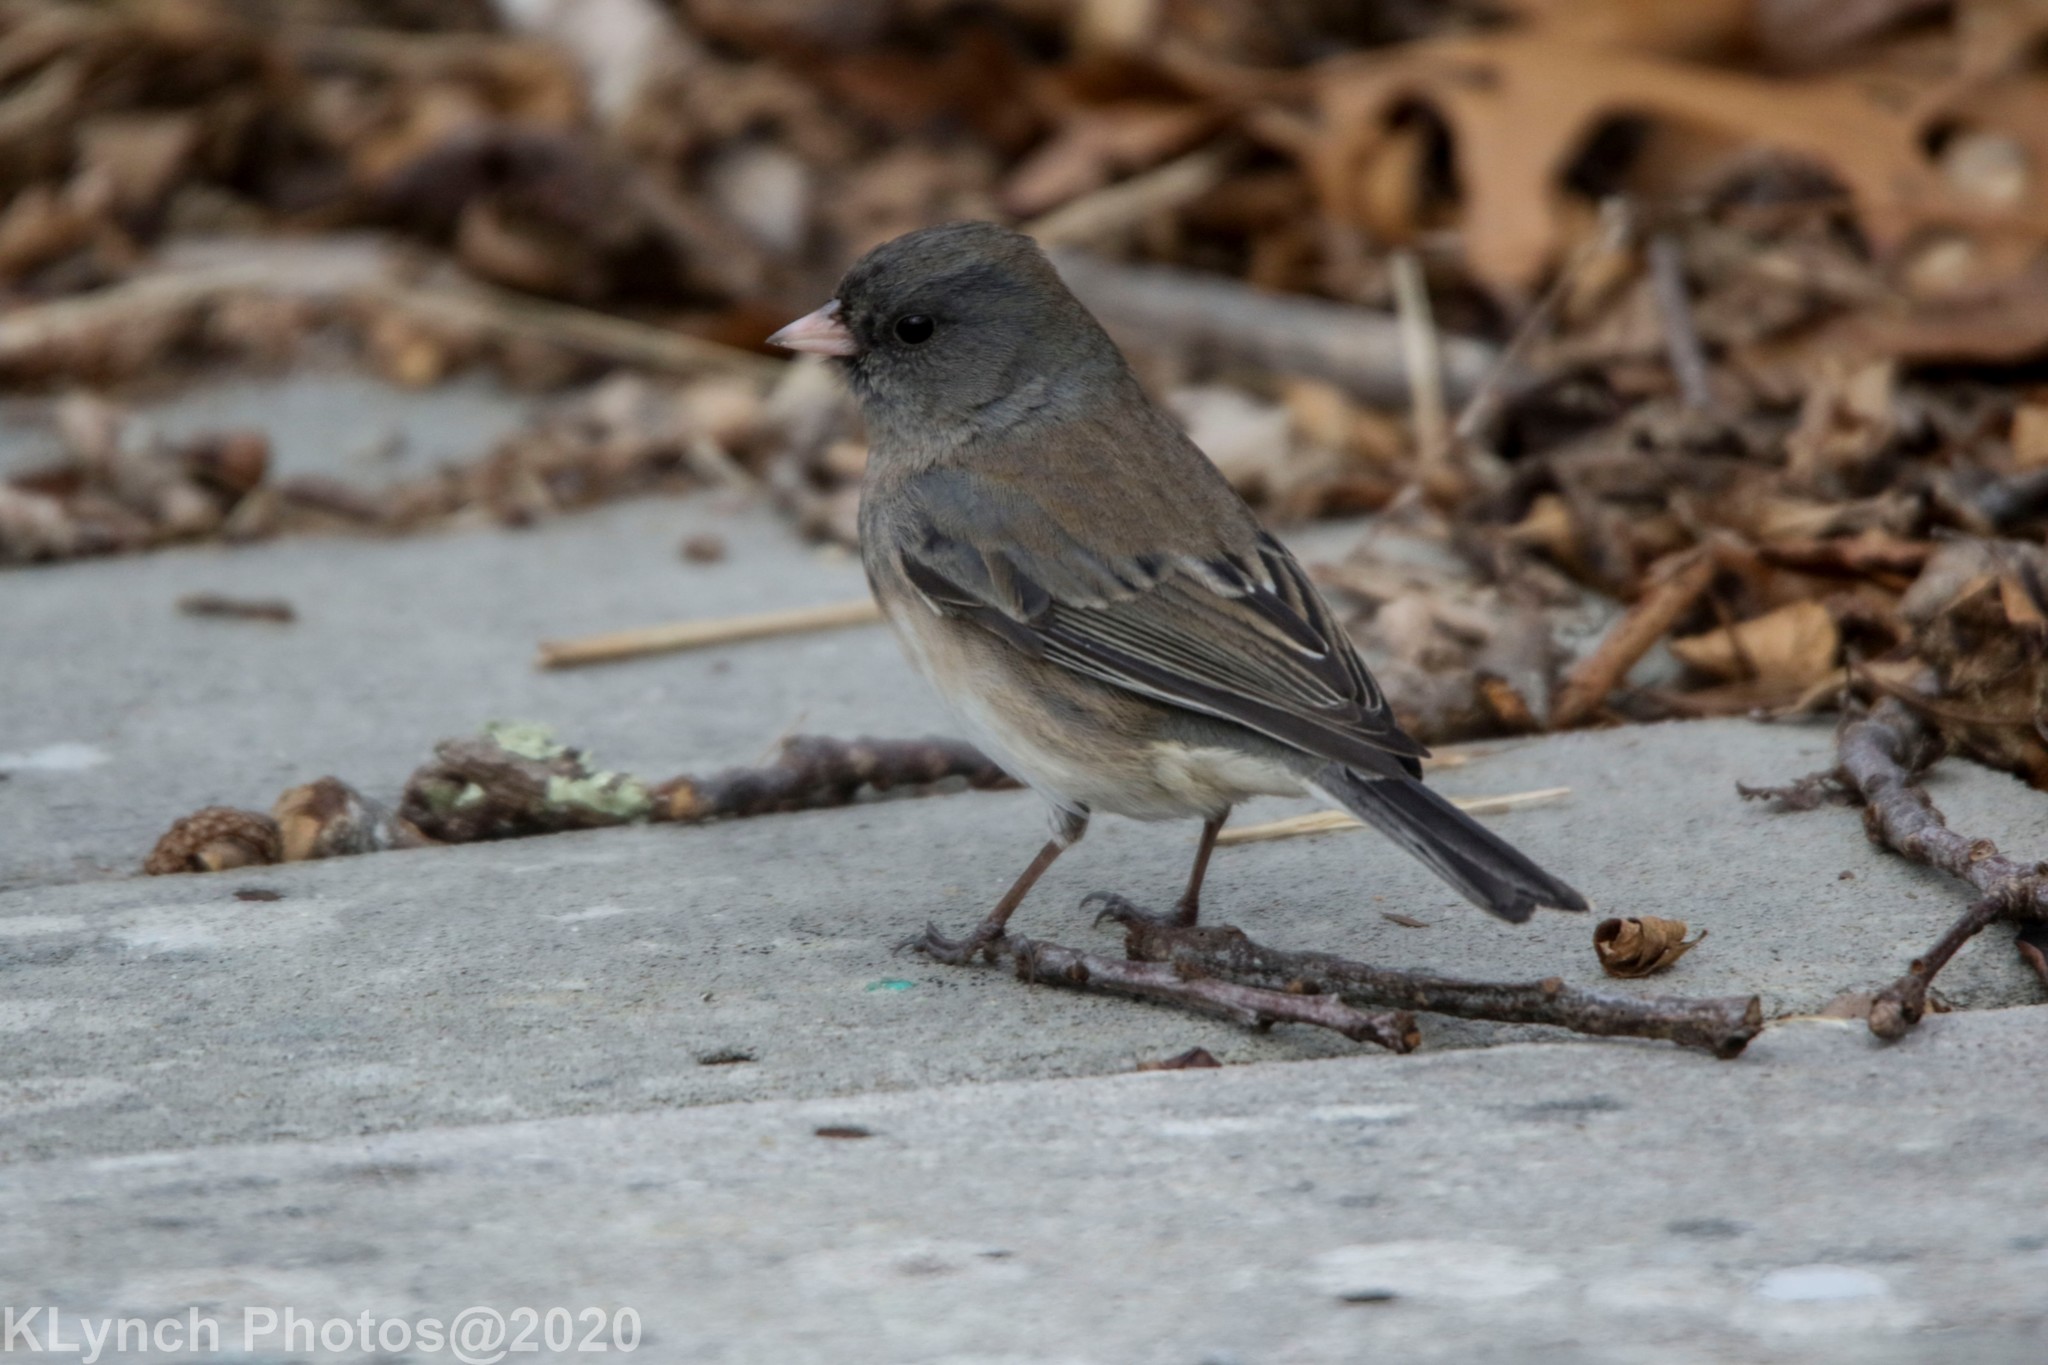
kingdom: Animalia
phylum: Chordata
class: Aves
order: Passeriformes
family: Passerellidae
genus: Junco
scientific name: Junco hyemalis
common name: Dark-eyed junco
